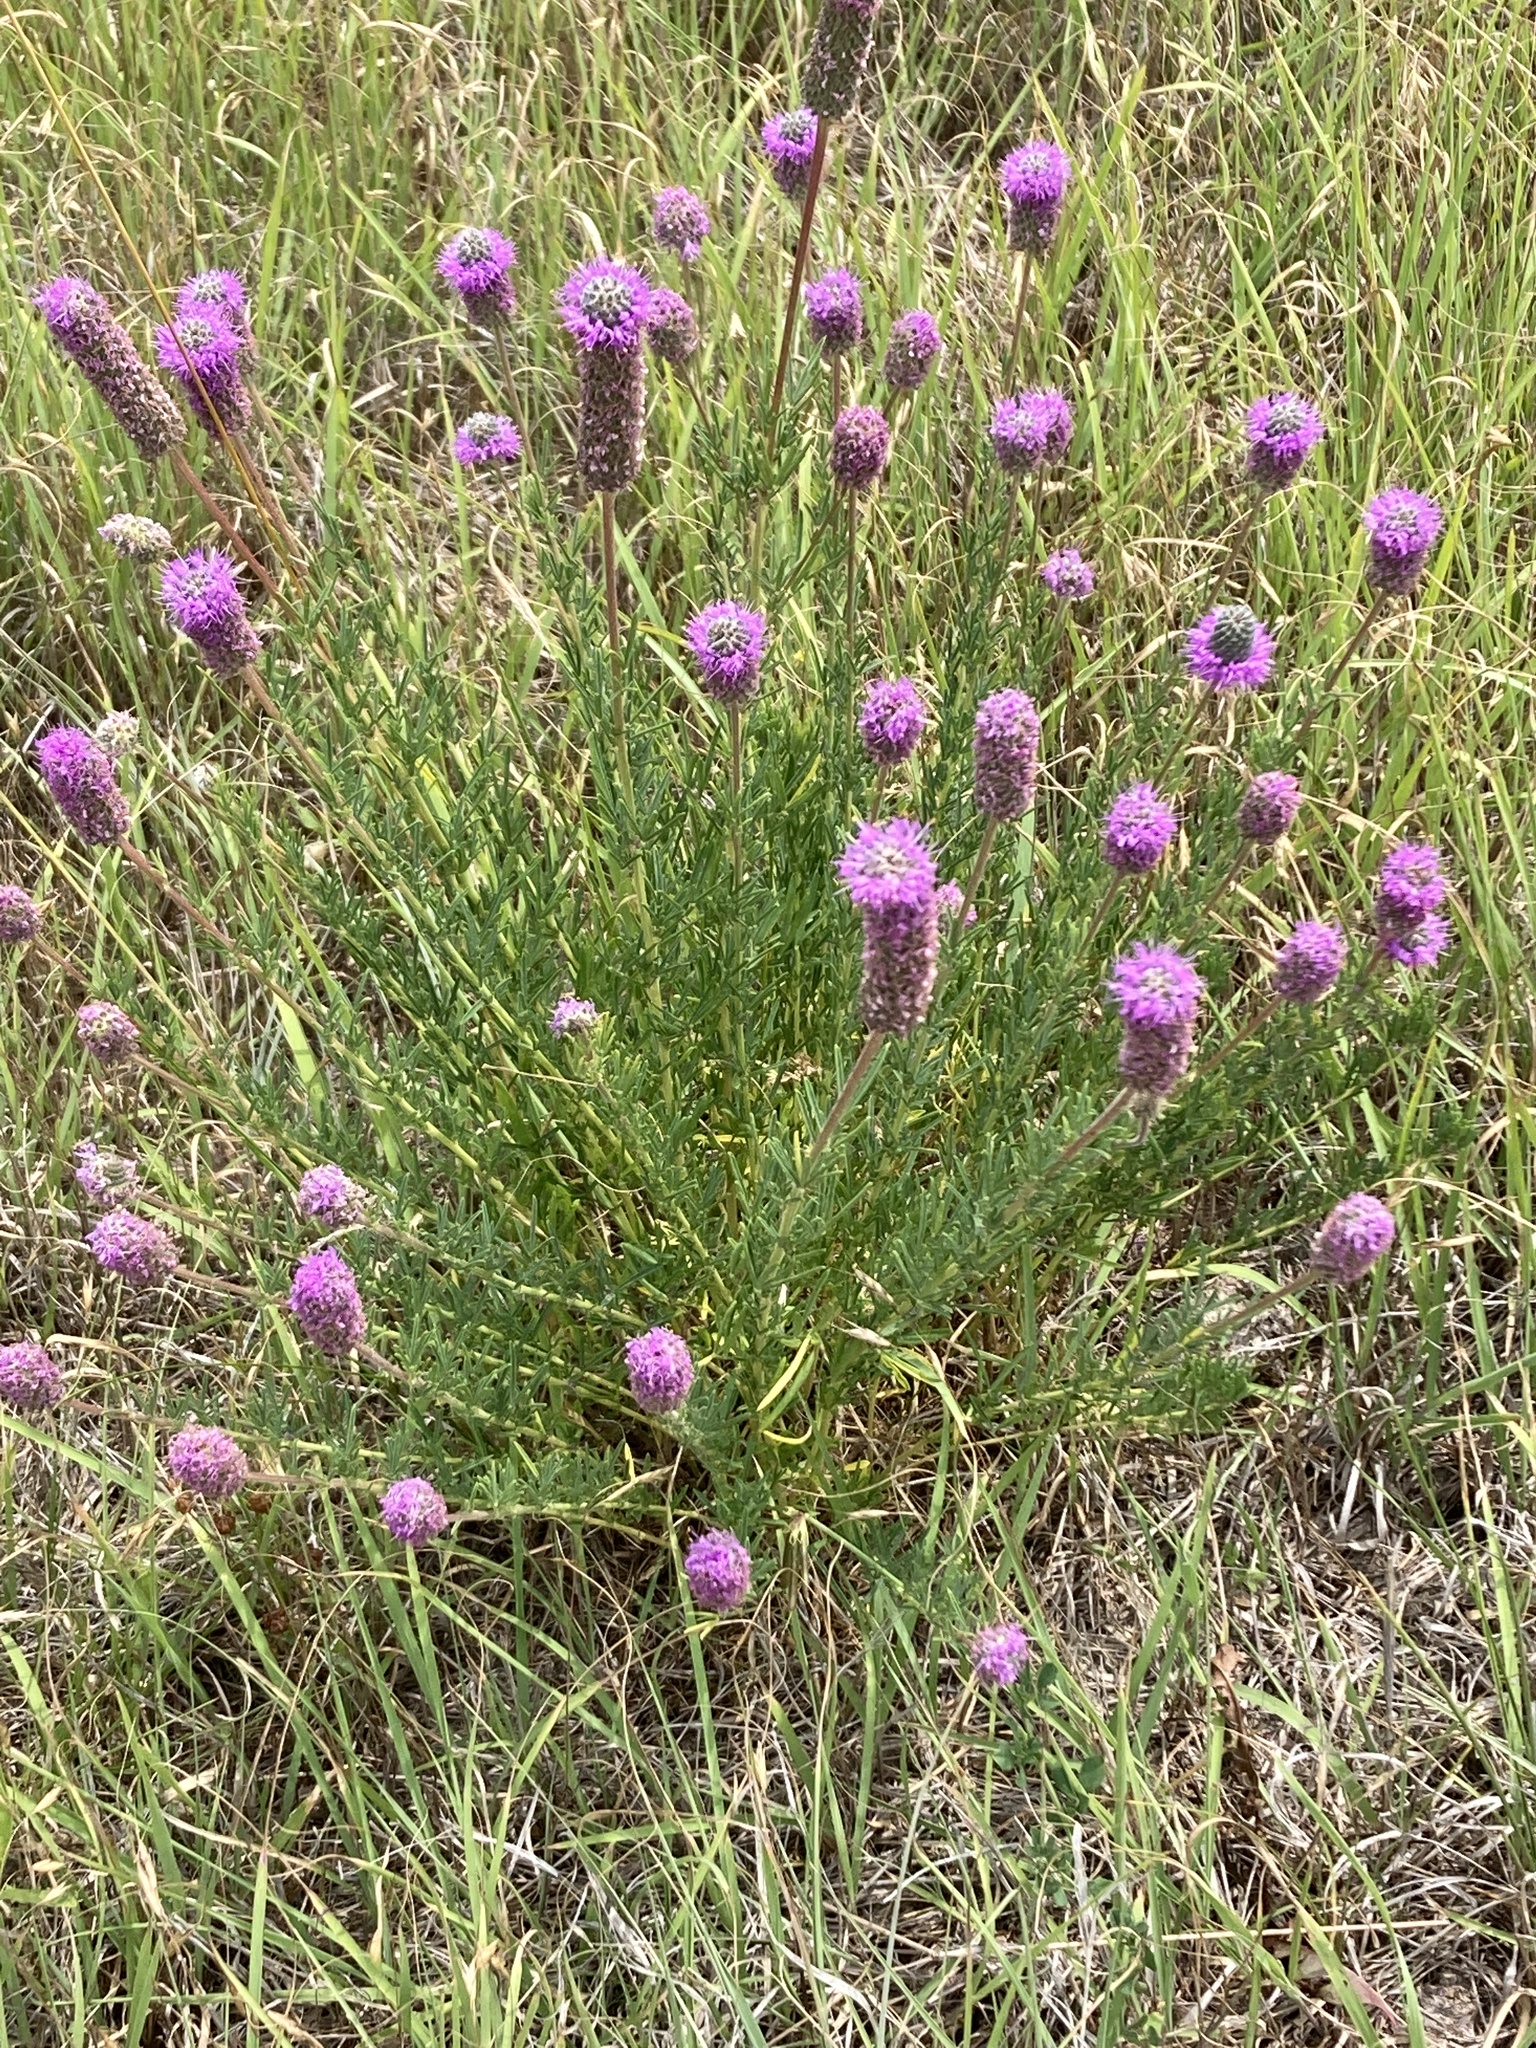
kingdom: Plantae
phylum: Tracheophyta
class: Magnoliopsida
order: Fabales
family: Fabaceae
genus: Dalea
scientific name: Dalea purpurea
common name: Purple prairie-clover
